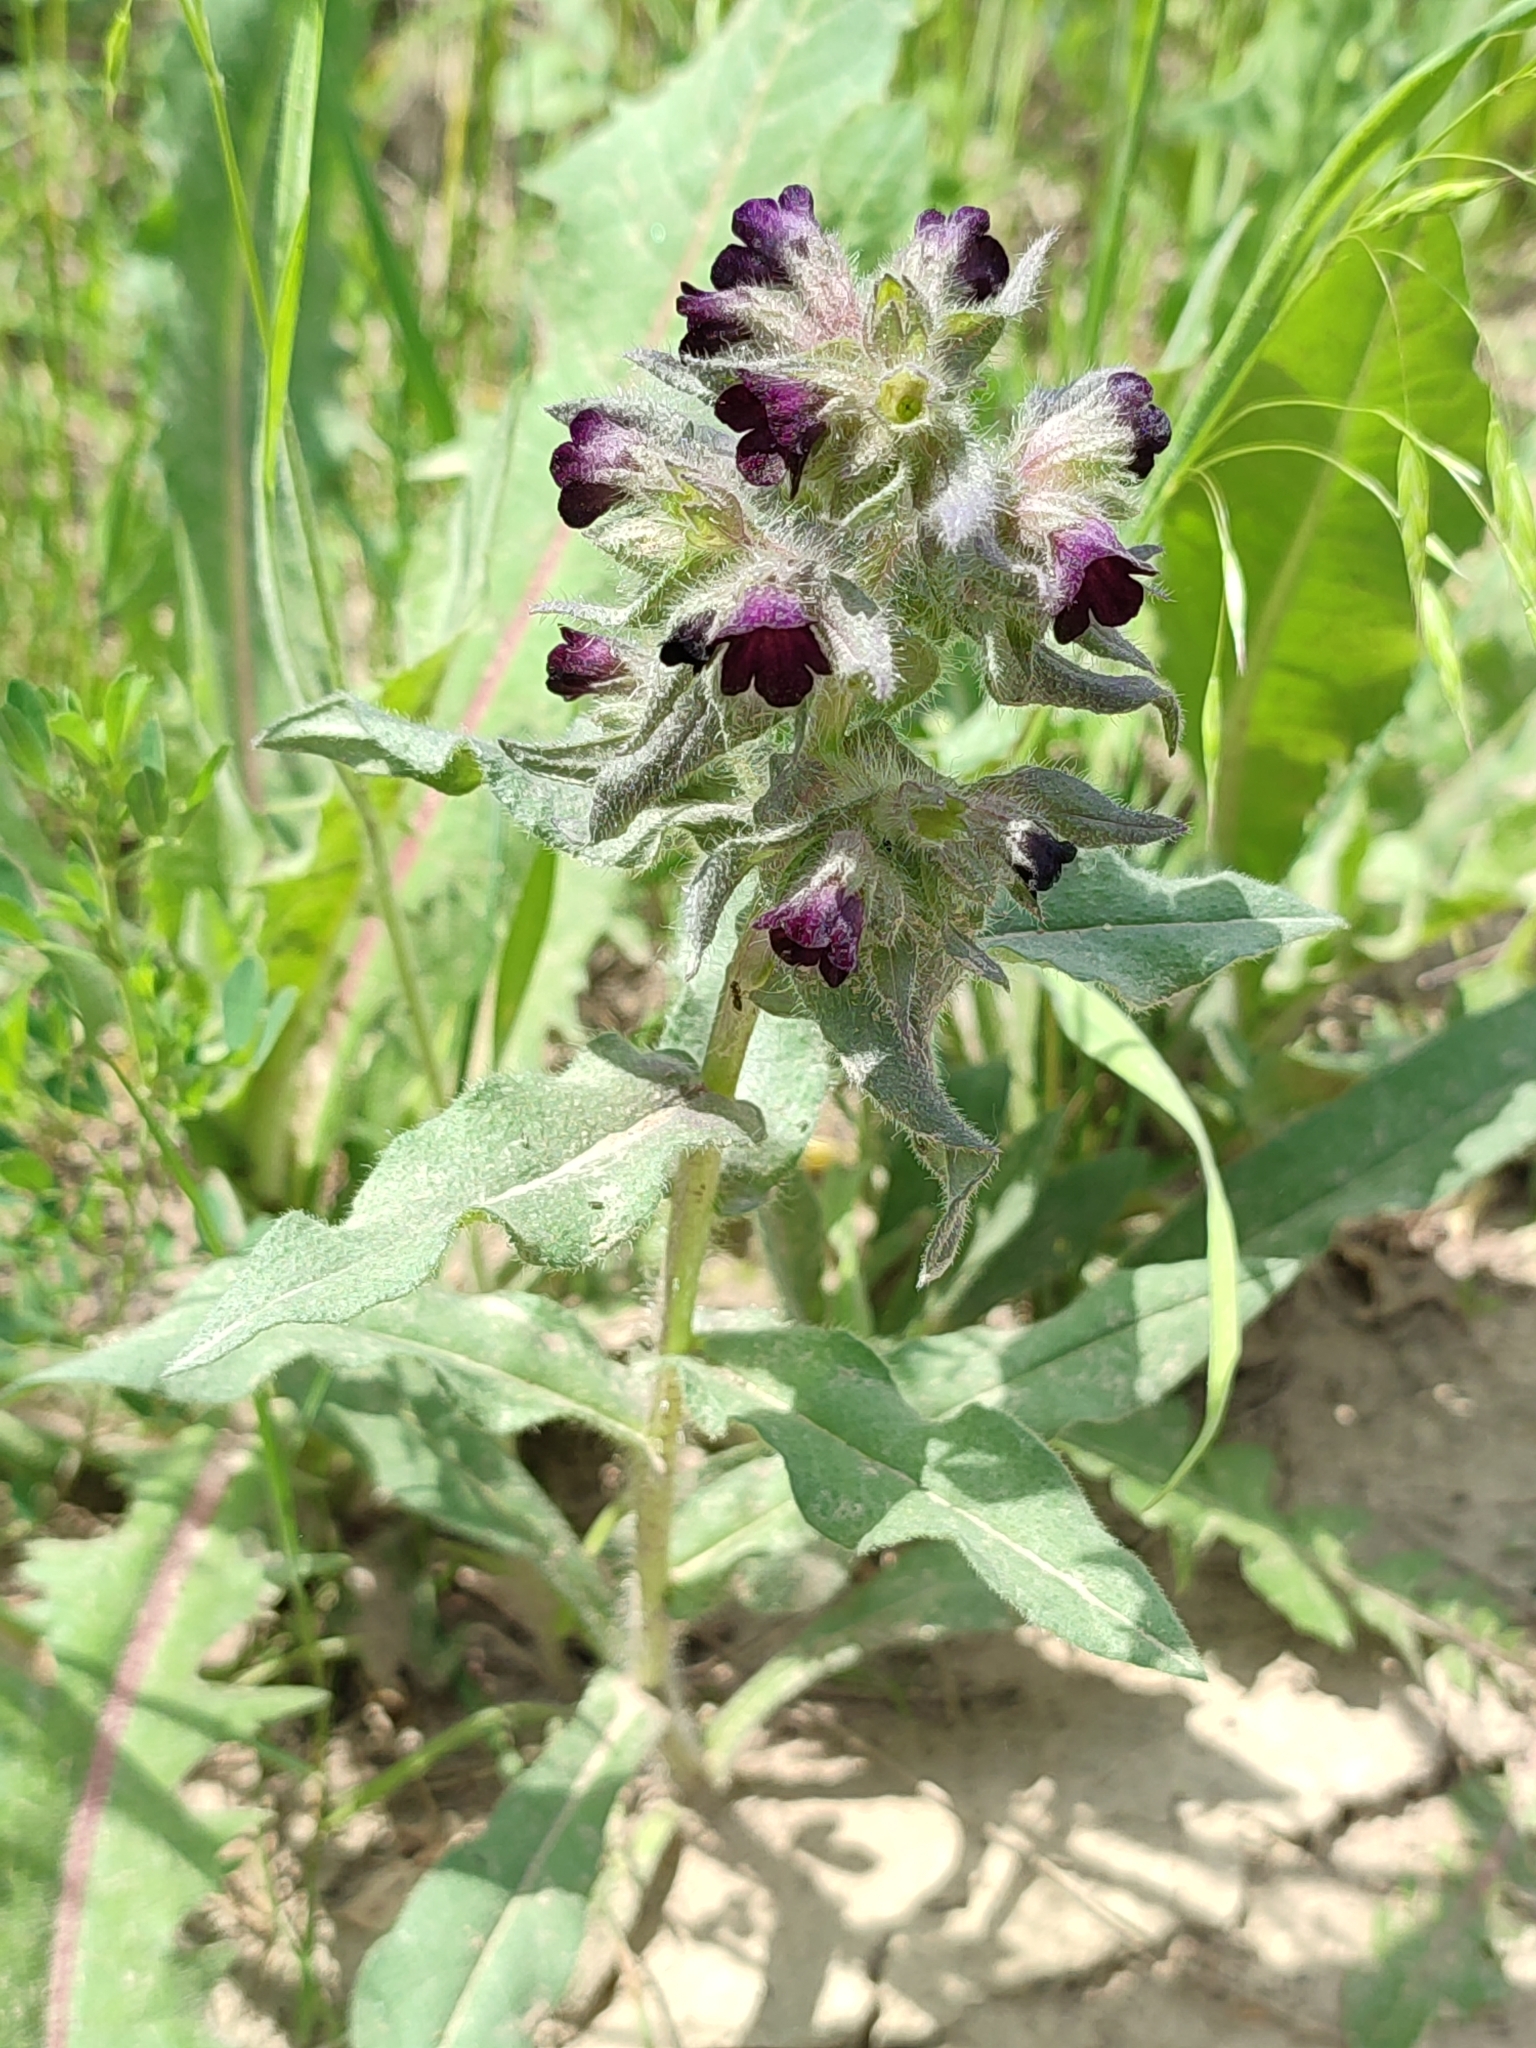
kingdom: Plantae
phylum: Tracheophyta
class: Magnoliopsida
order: Boraginales
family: Boraginaceae
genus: Nonea
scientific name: Nonea pulla
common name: Brown nonea
